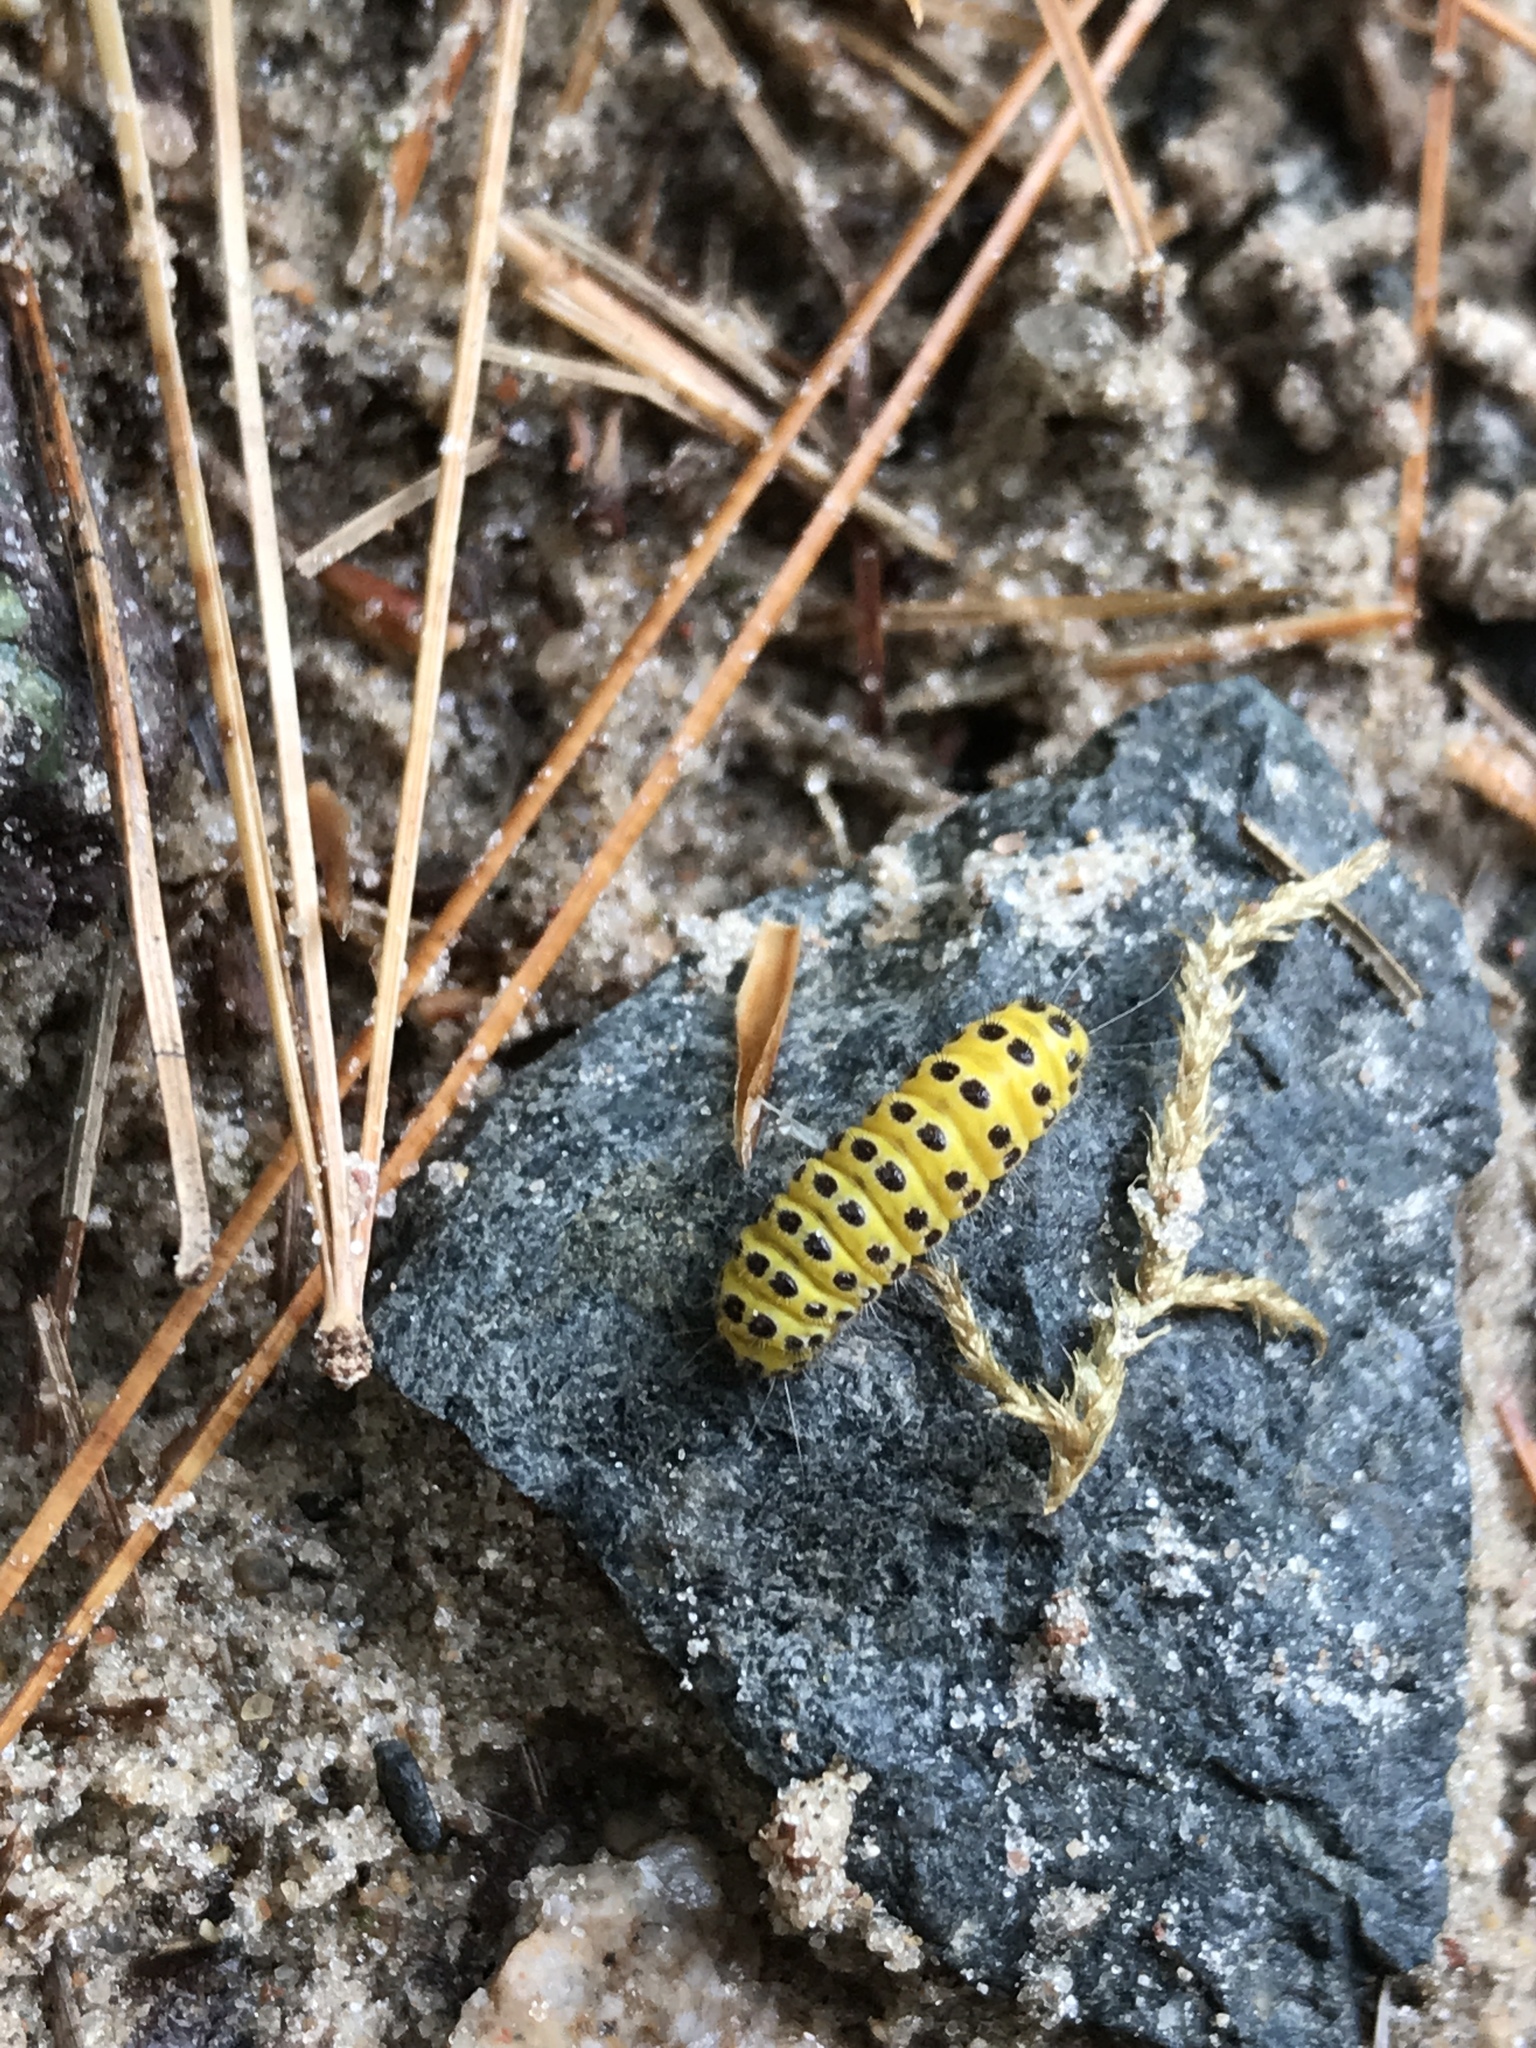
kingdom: Animalia
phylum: Arthropoda
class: Insecta
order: Lepidoptera
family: Zygaenidae
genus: Harrisina
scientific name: Harrisina americana
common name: Grapeleaf skeletonizer moth
